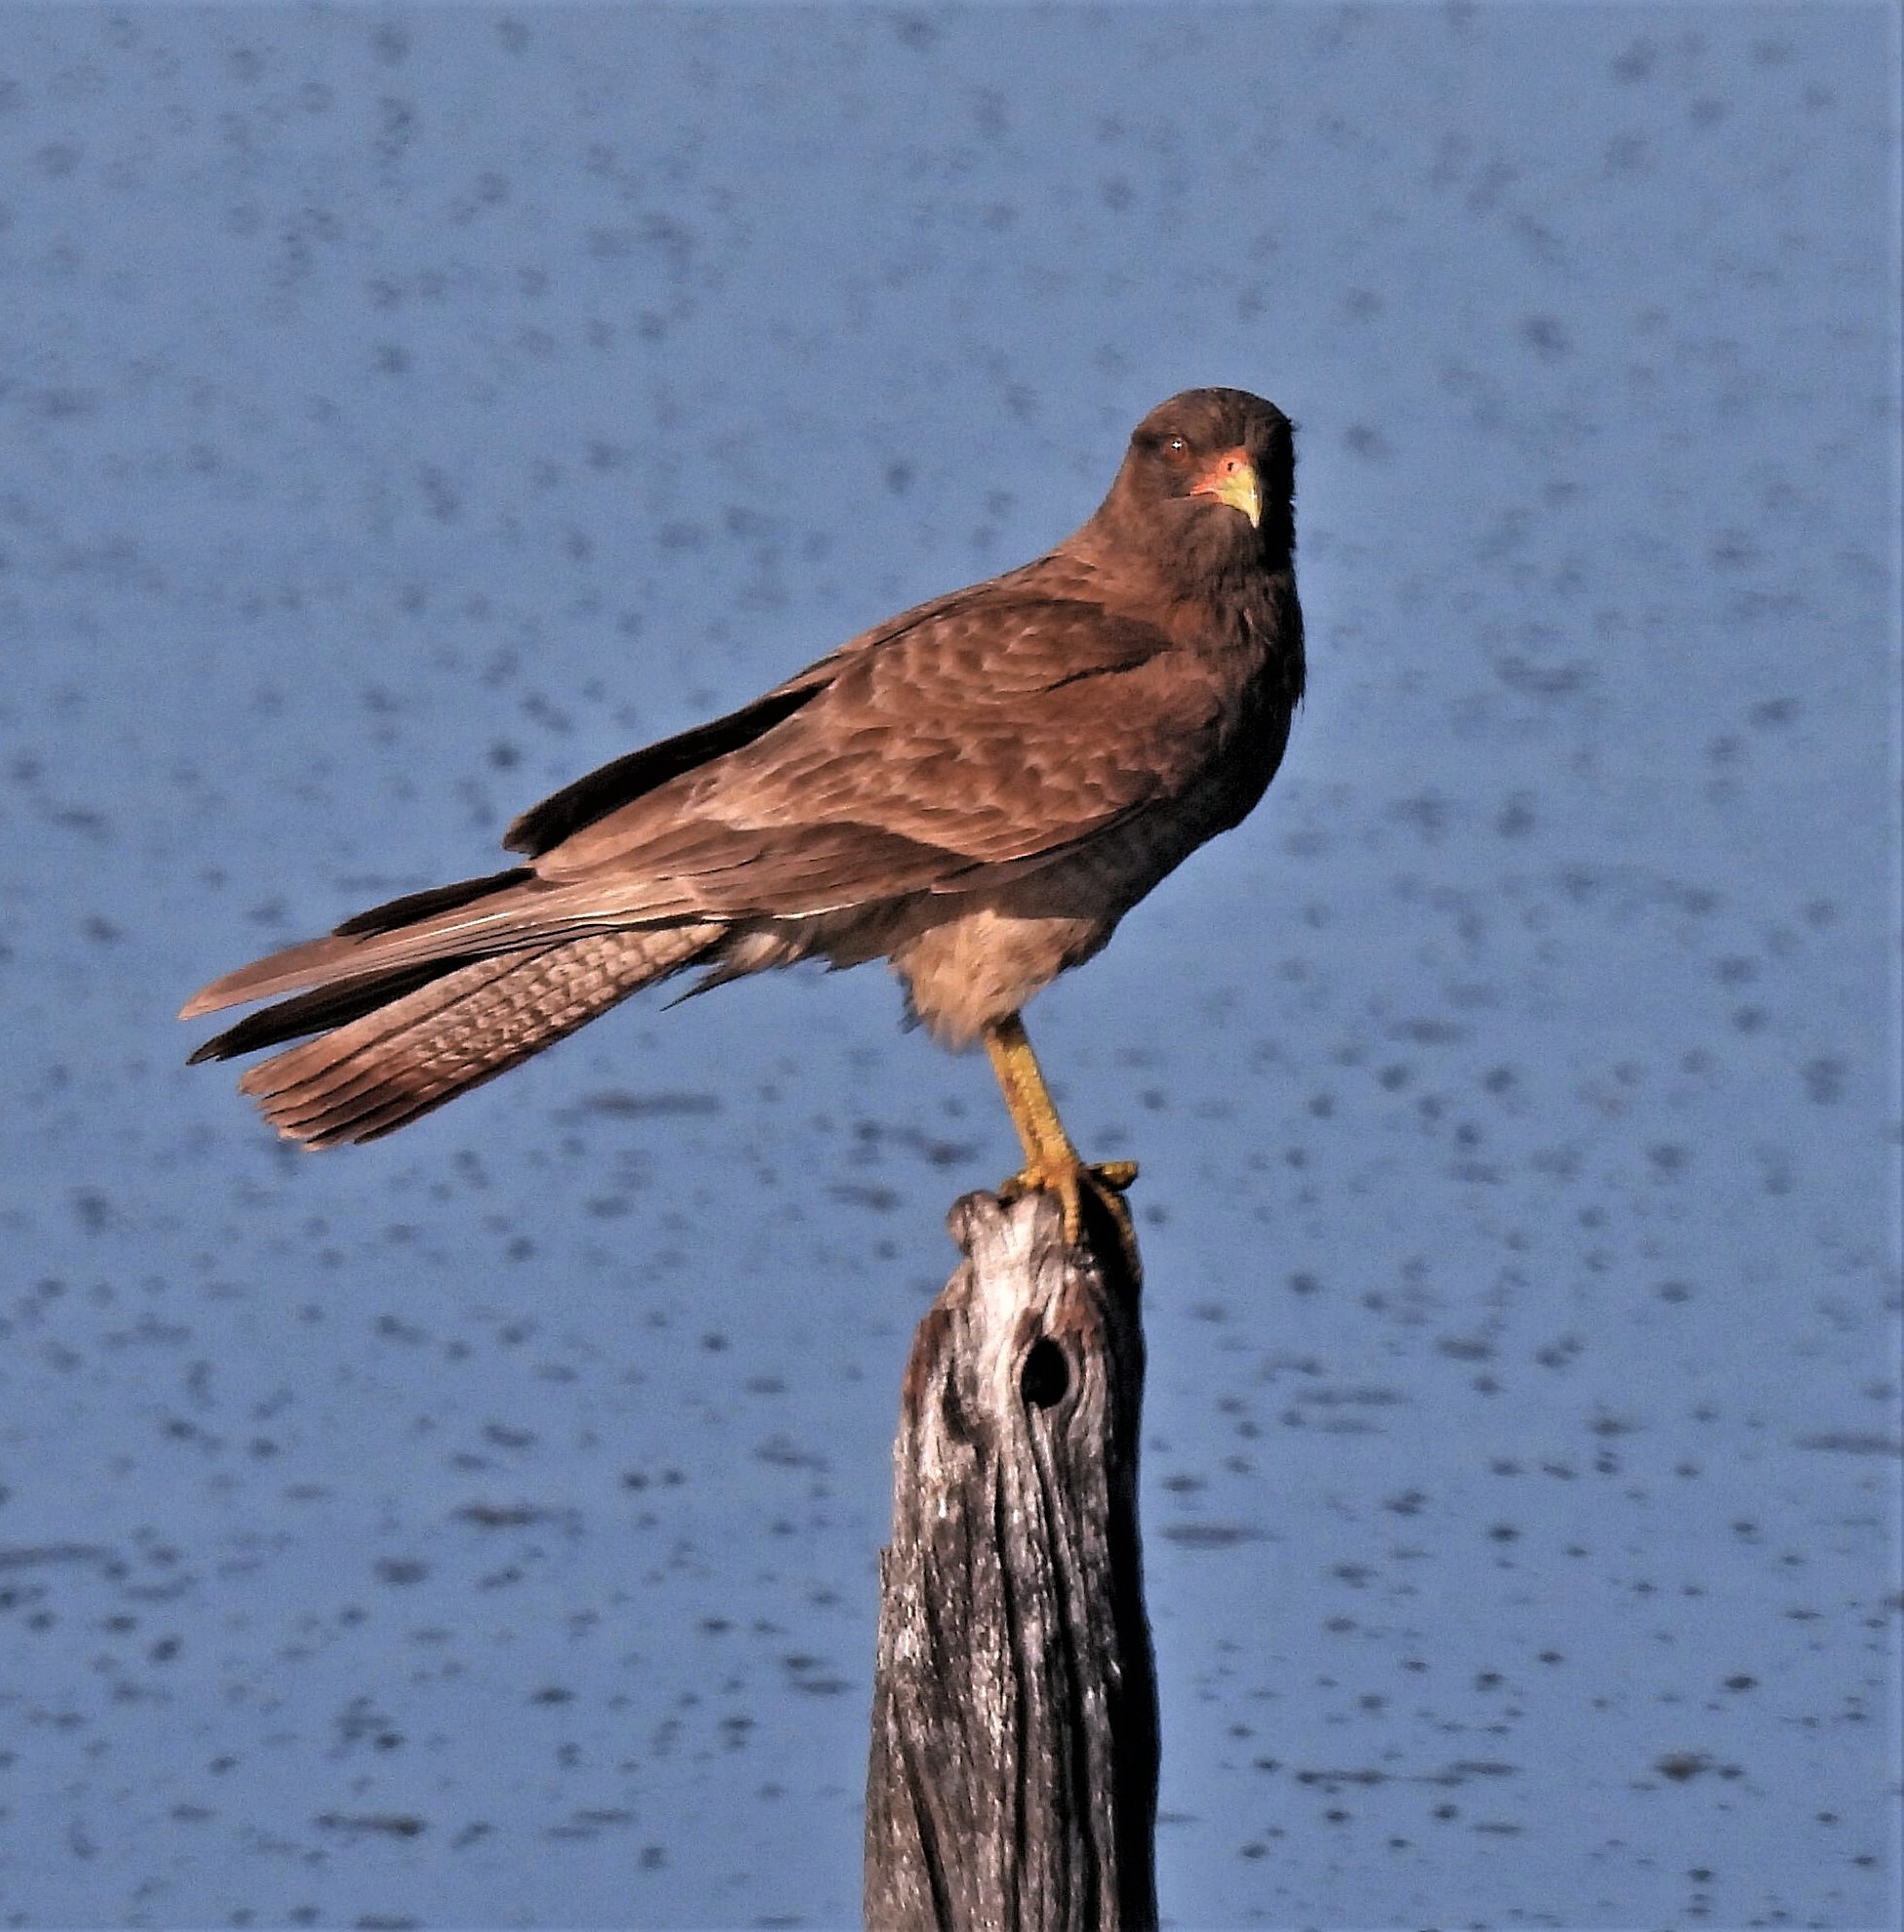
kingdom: Animalia
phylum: Chordata
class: Aves
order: Falconiformes
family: Falconidae
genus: Daptrius
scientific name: Daptrius
